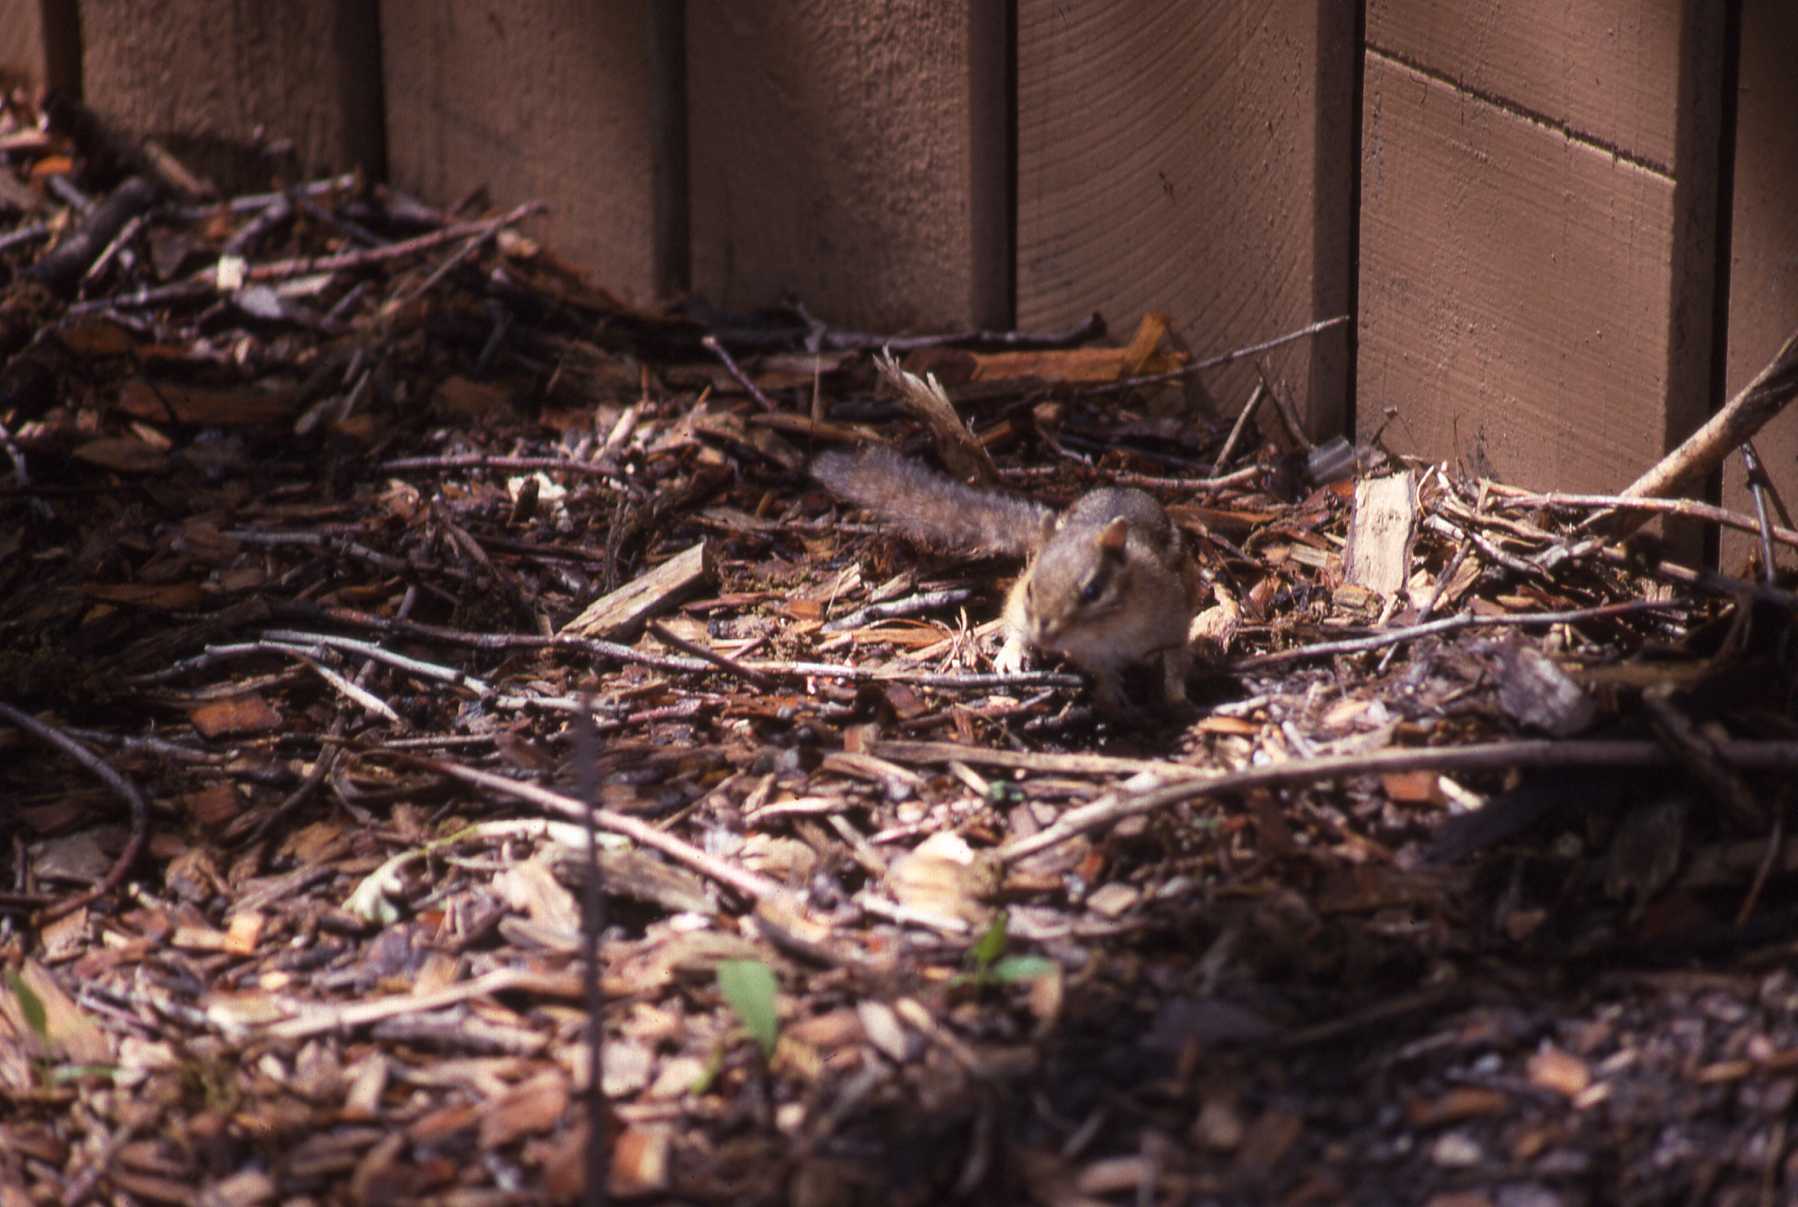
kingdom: Animalia
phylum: Chordata
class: Mammalia
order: Rodentia
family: Sciuridae
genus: Tamias
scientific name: Tamias striatus
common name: Eastern chipmunk
